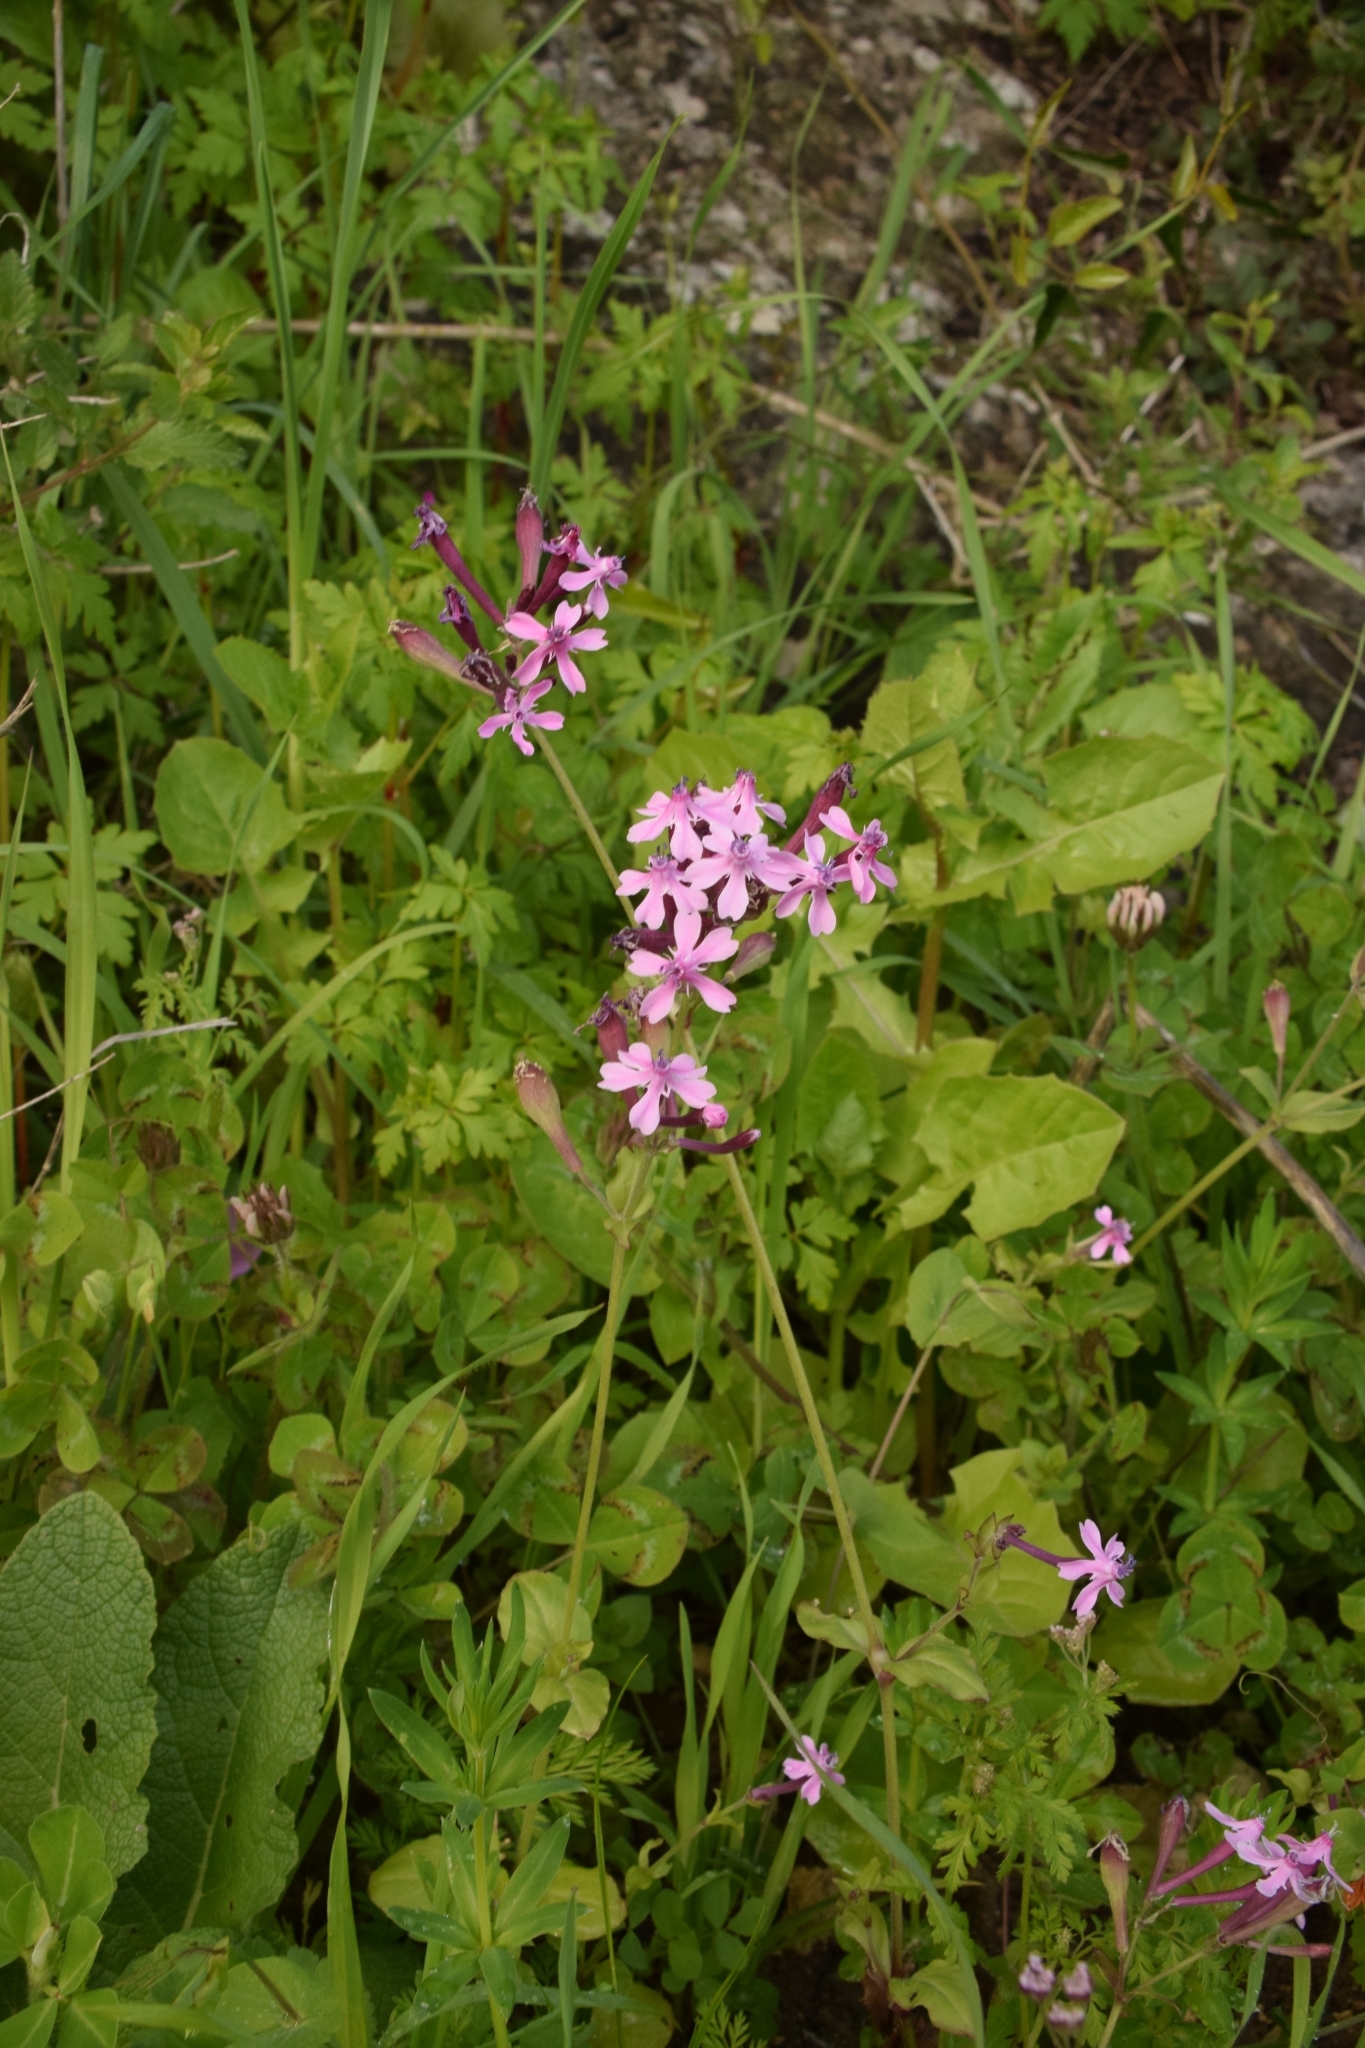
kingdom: Plantae
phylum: Tracheophyta
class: Magnoliopsida
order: Caryophyllales
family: Caryophyllaceae
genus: Silene
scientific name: Silene aegyptiaca
